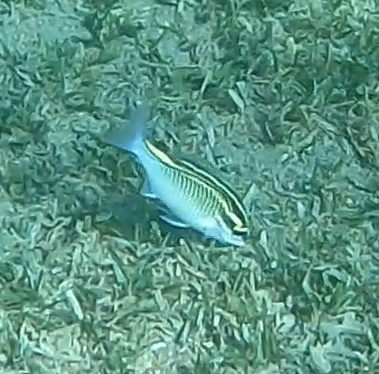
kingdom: Animalia
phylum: Chordata
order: Perciformes
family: Nemipteridae
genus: Scolopsis
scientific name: Scolopsis ghanam
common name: Arabian monocle bream
